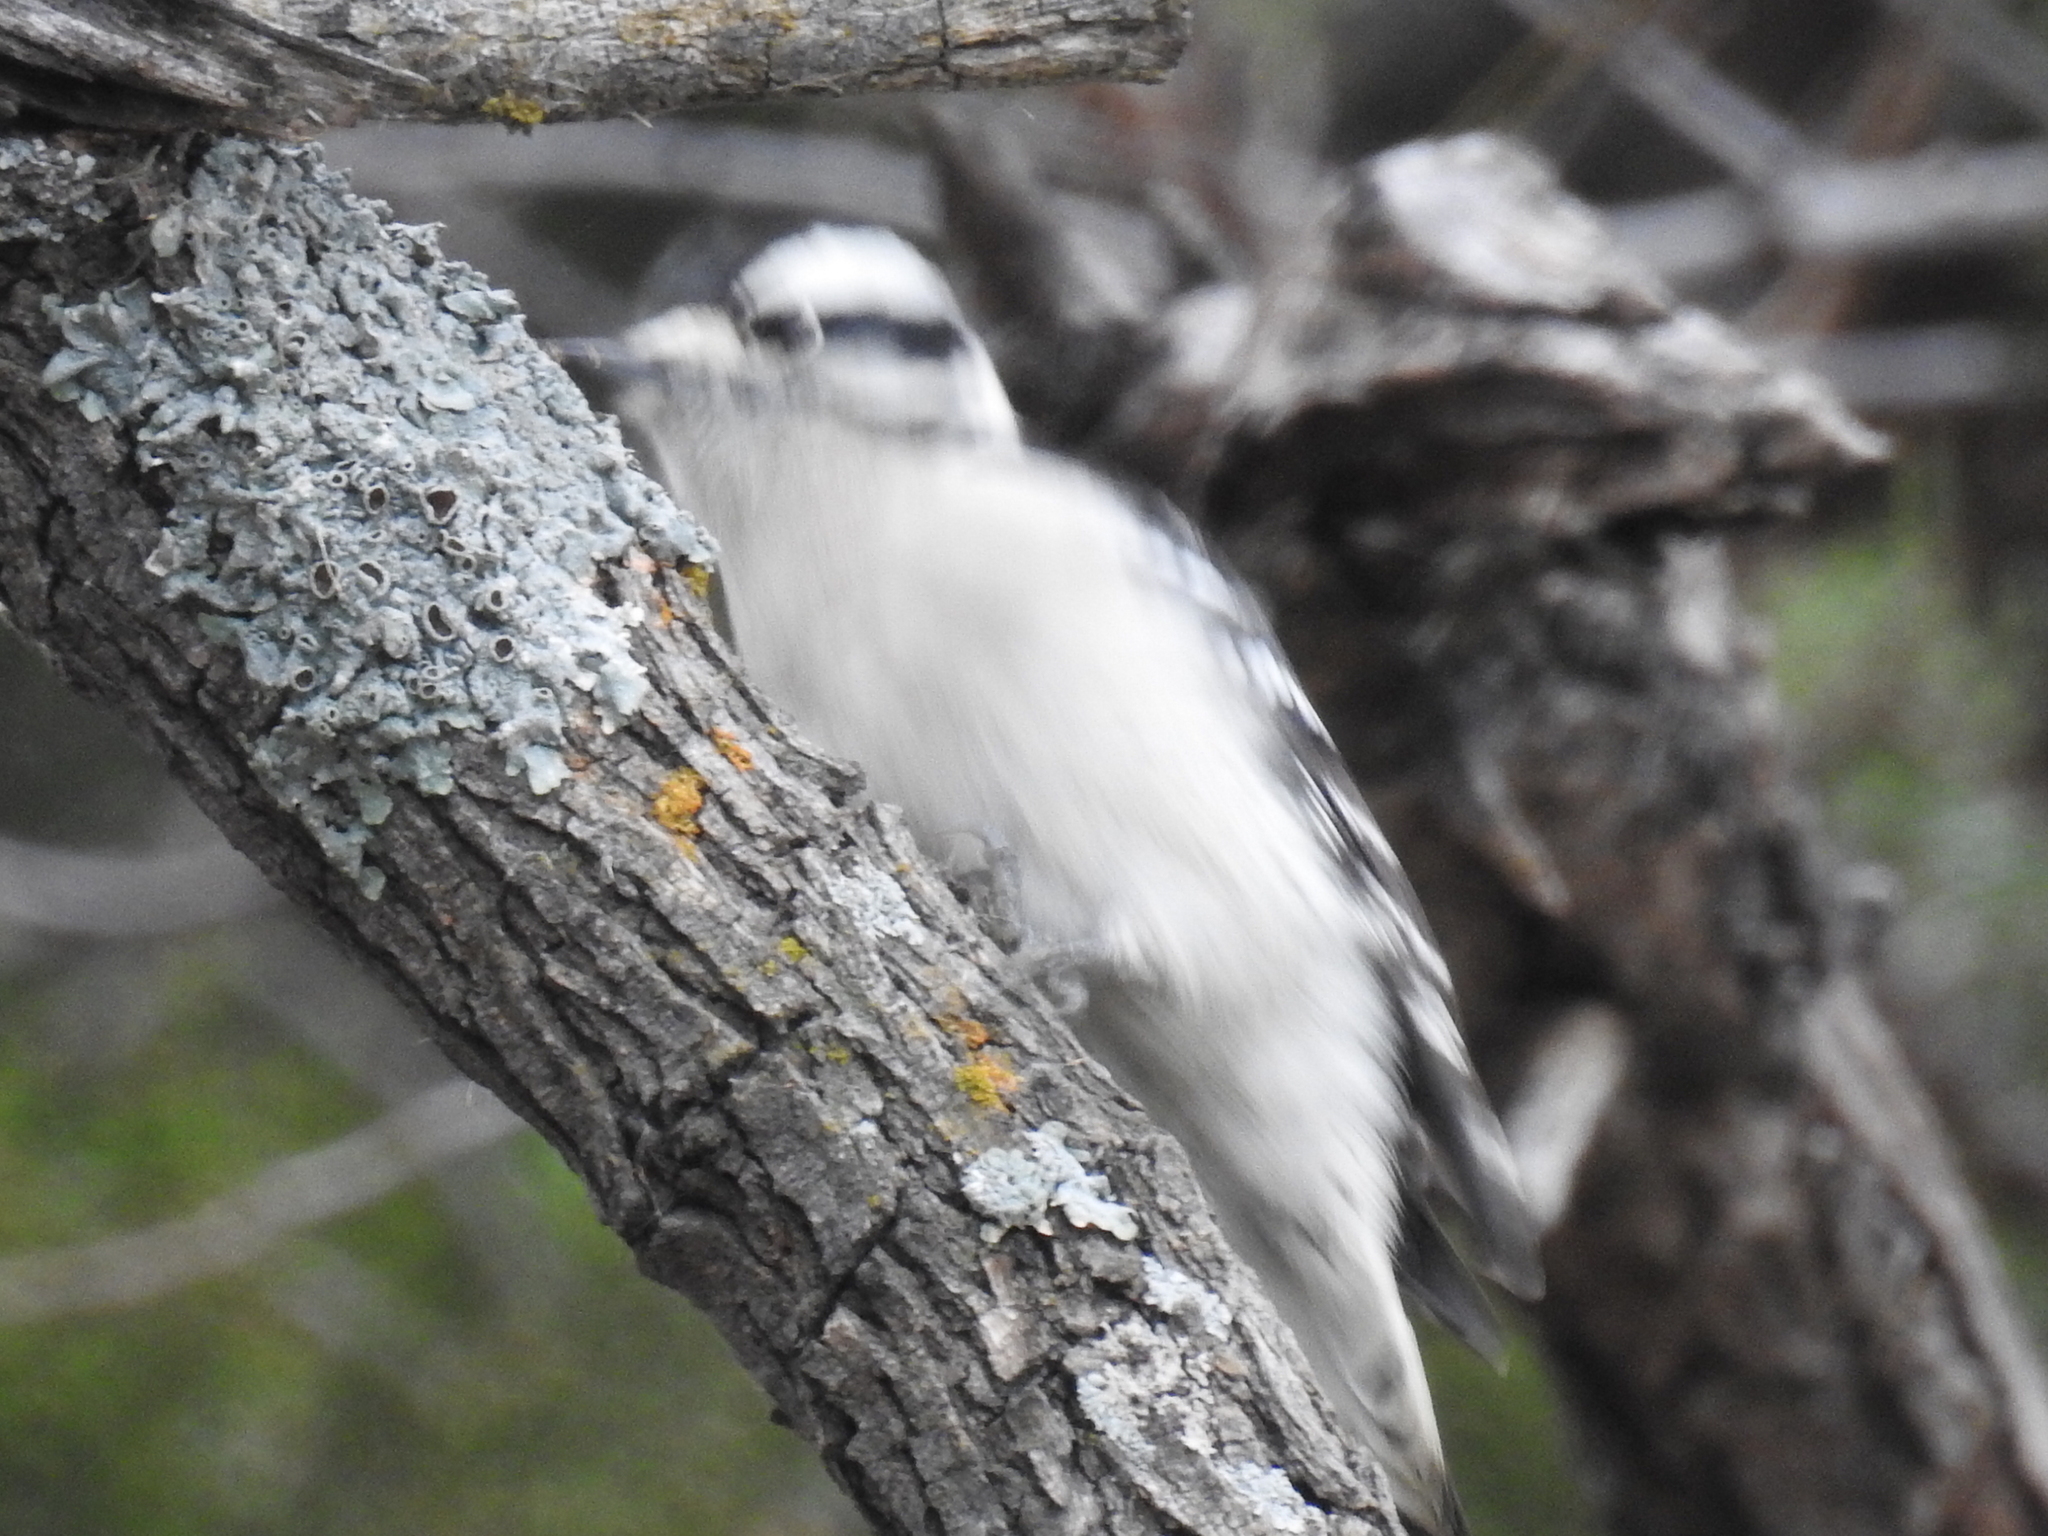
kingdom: Animalia
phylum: Chordata
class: Aves
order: Piciformes
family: Picidae
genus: Dryobates
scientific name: Dryobates pubescens
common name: Downy woodpecker
